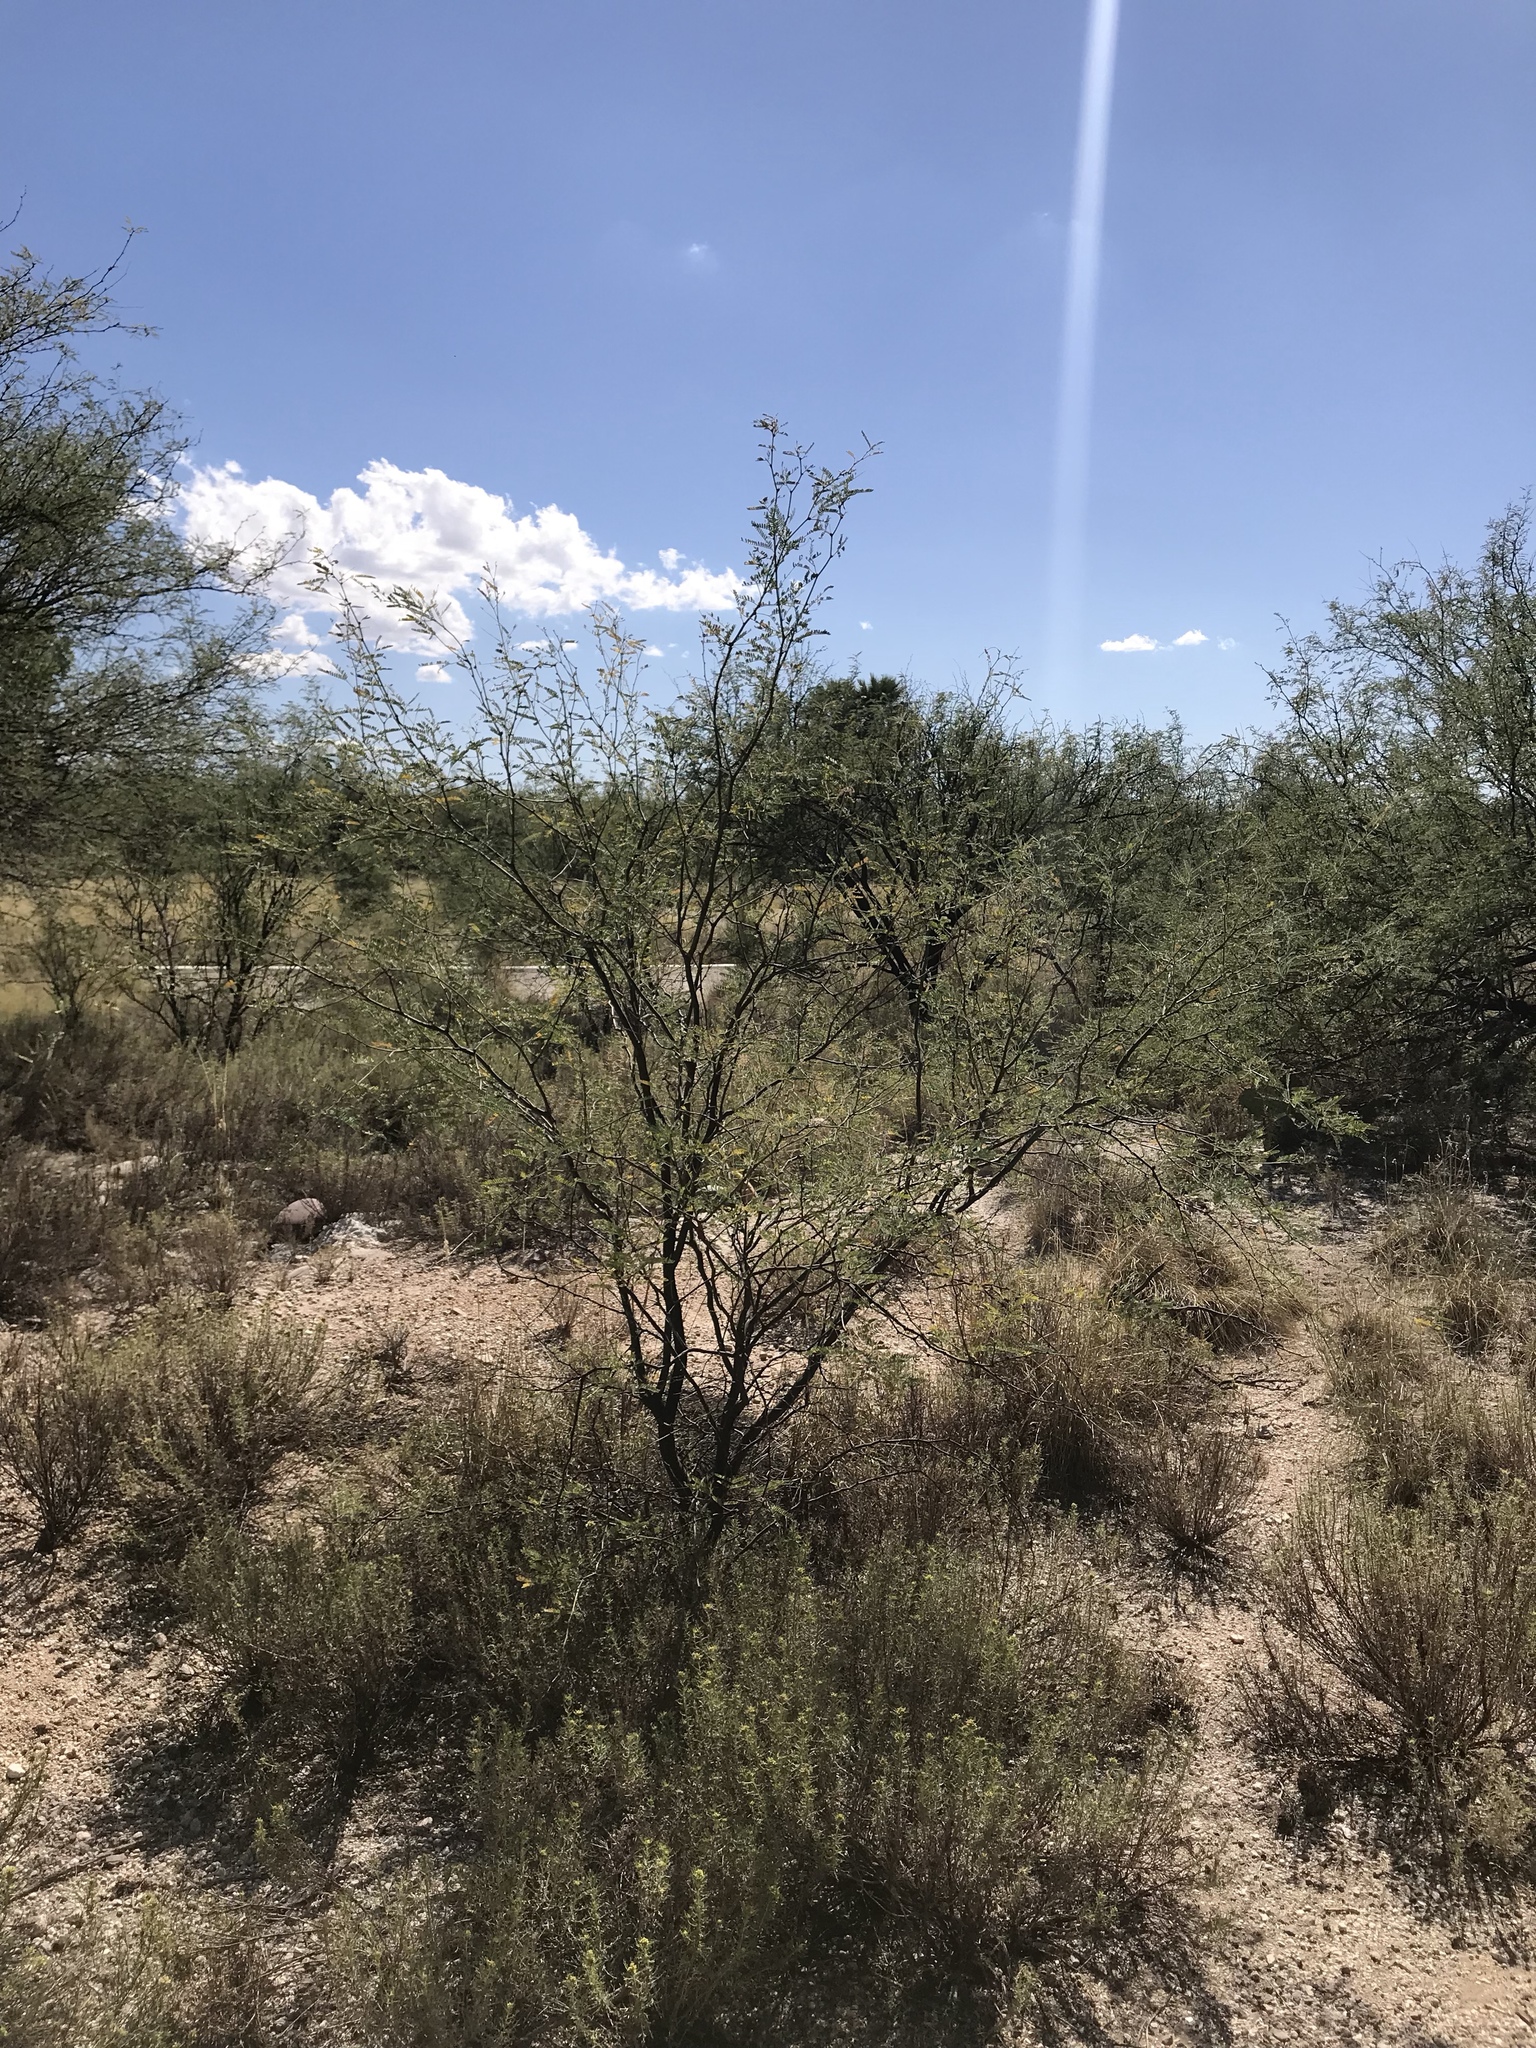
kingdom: Plantae
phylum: Tracheophyta
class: Magnoliopsida
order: Fabales
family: Fabaceae
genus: Vachellia
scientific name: Vachellia constricta
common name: Mescat acacia
